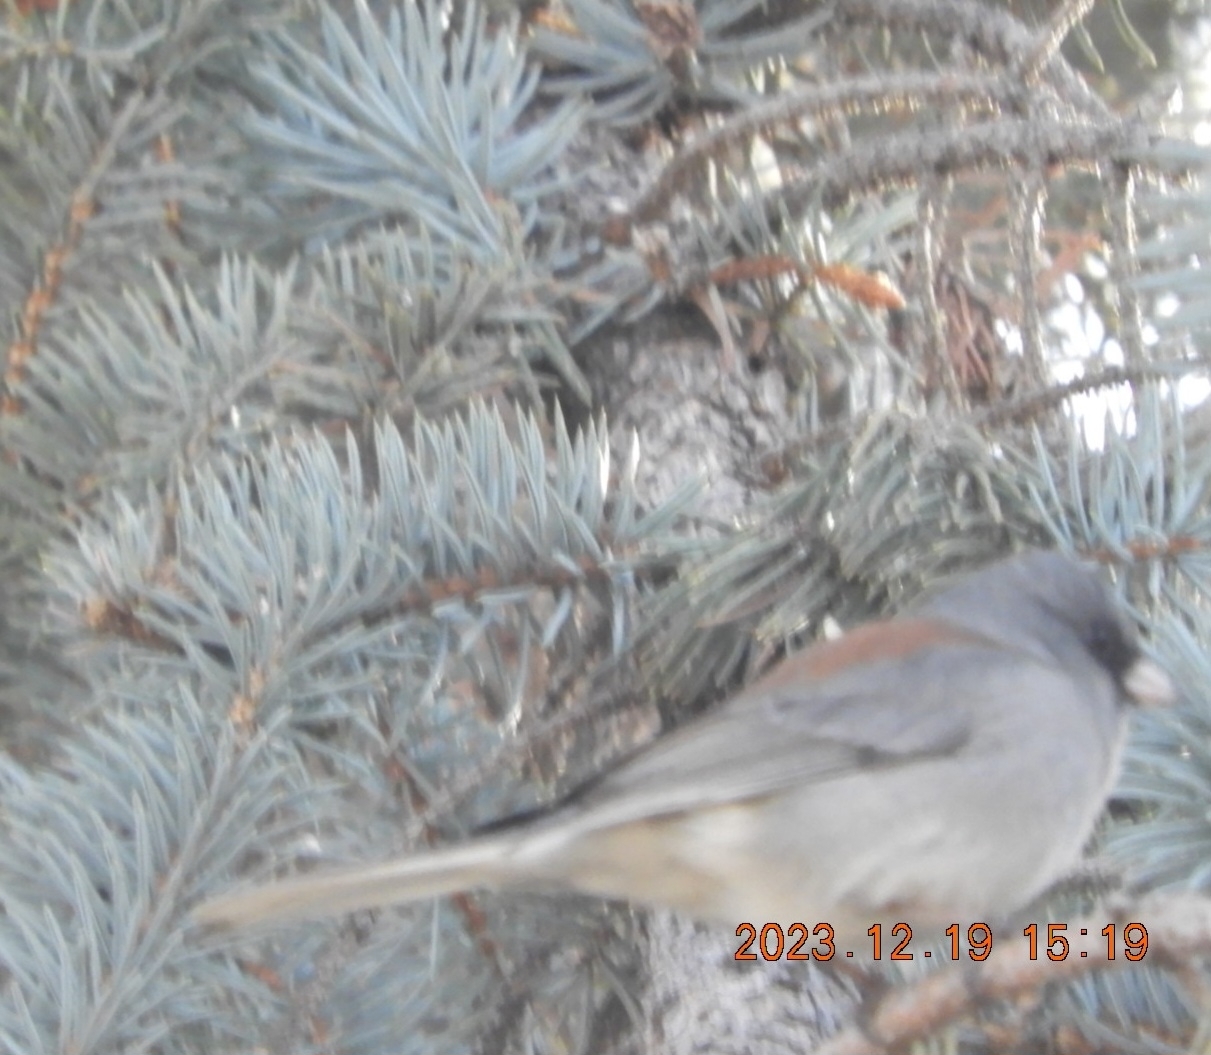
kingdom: Animalia
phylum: Chordata
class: Aves
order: Passeriformes
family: Passerellidae
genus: Junco
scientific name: Junco hyemalis
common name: Dark-eyed junco
